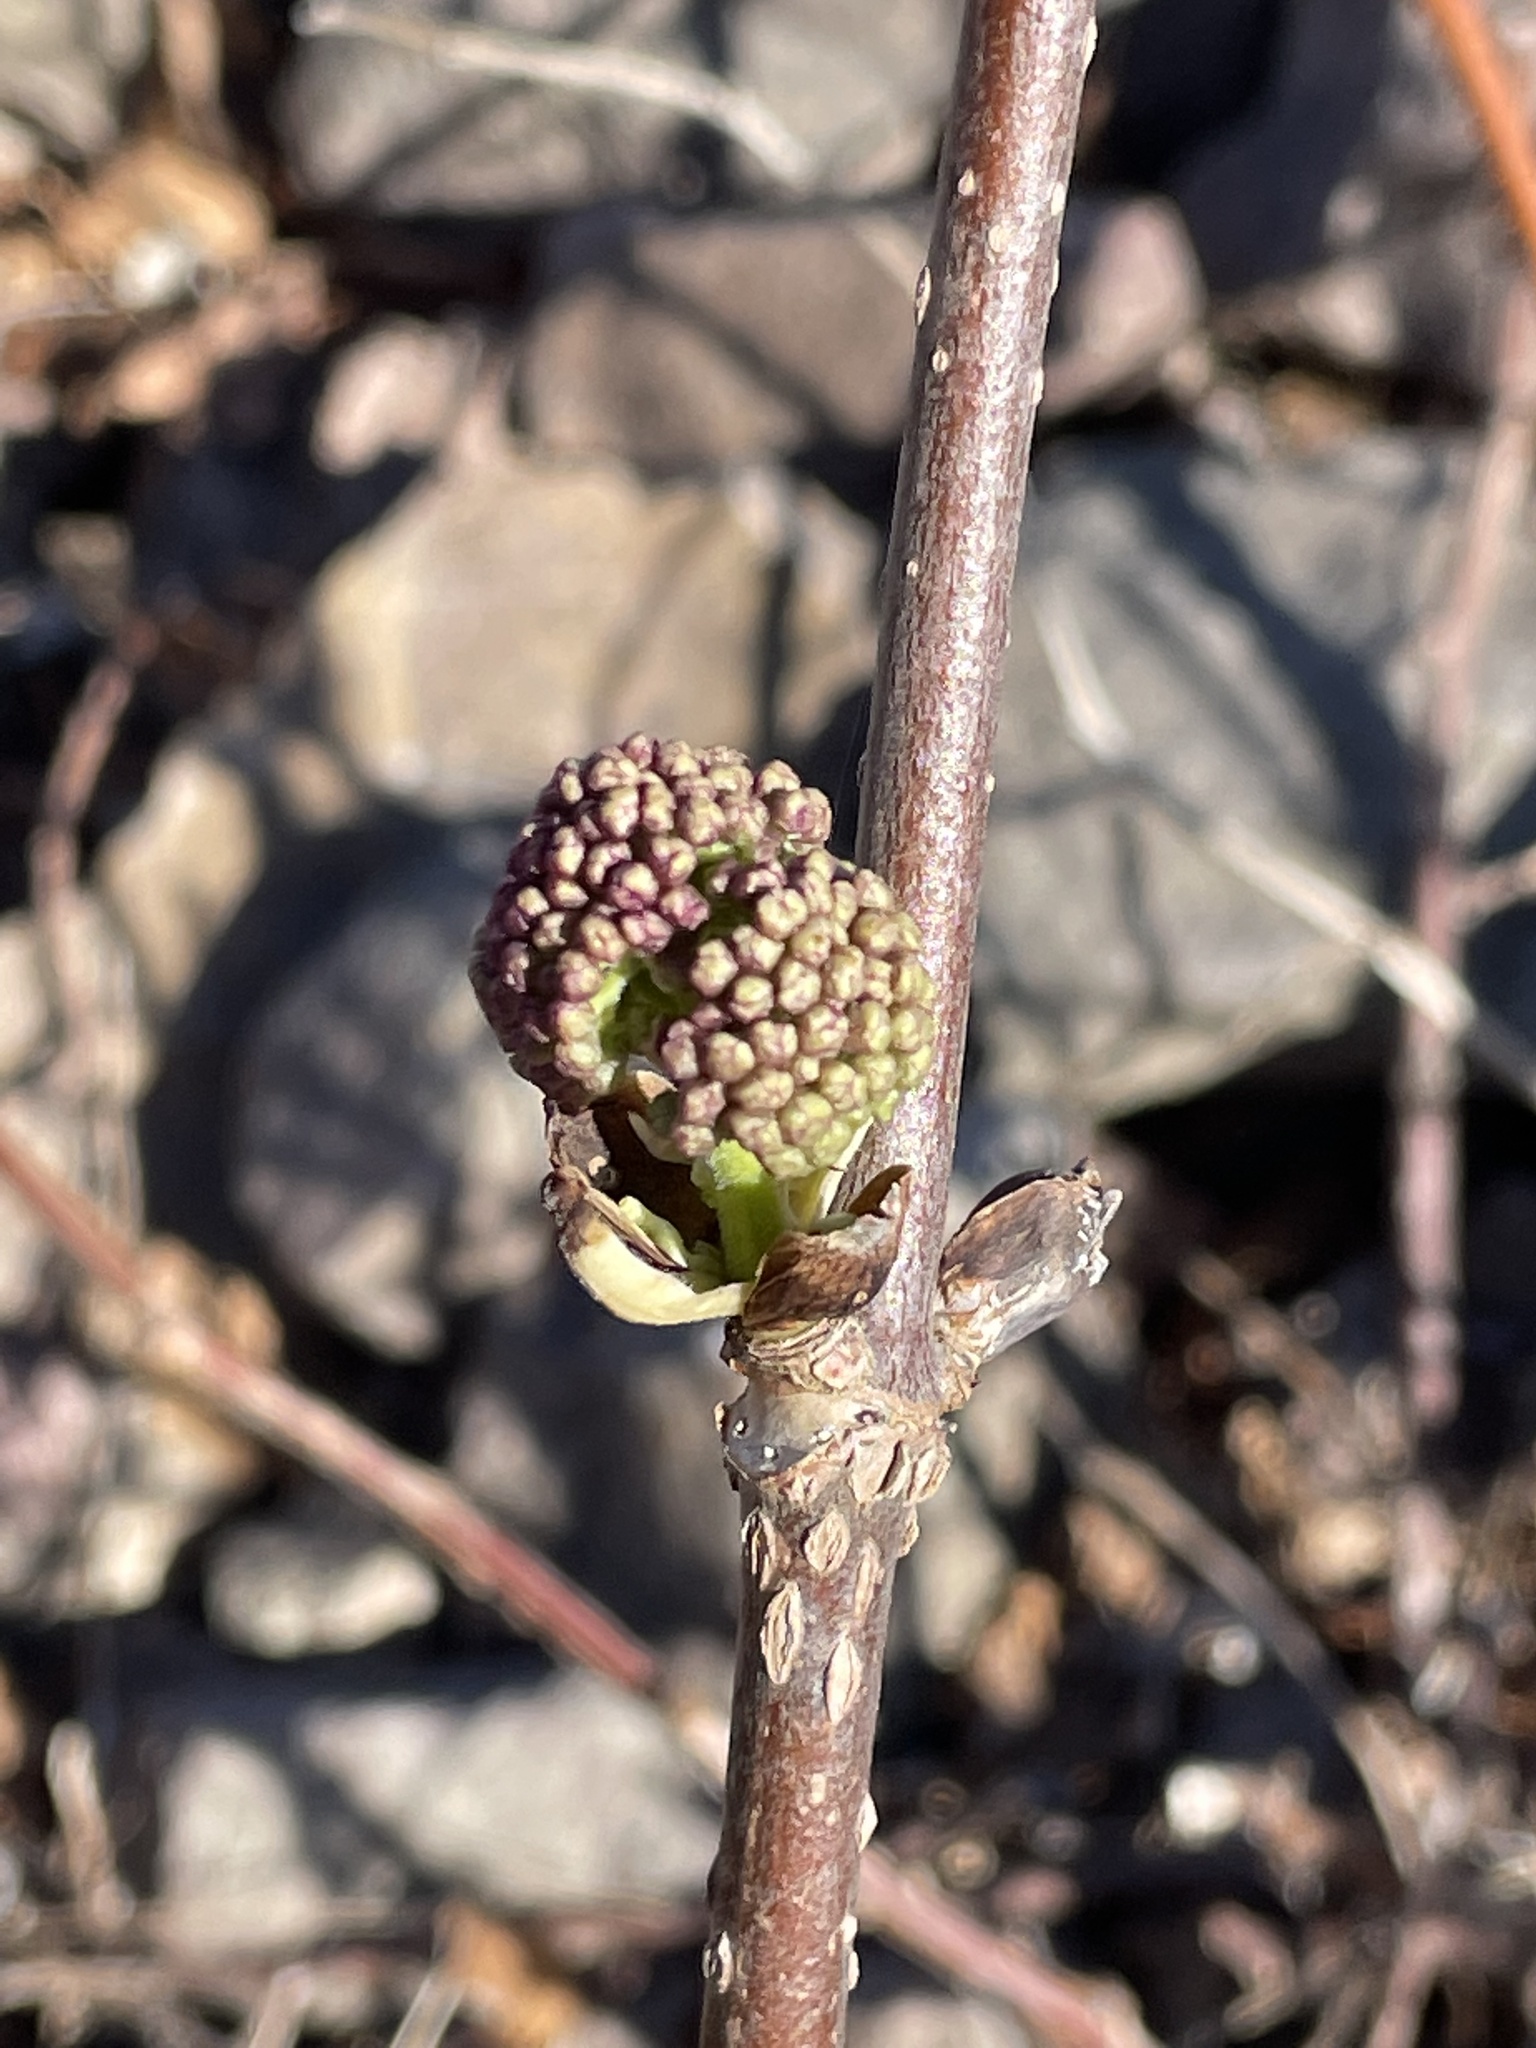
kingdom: Plantae
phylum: Tracheophyta
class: Magnoliopsida
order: Dipsacales
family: Viburnaceae
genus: Sambucus
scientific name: Sambucus racemosa
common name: Red-berried elder
